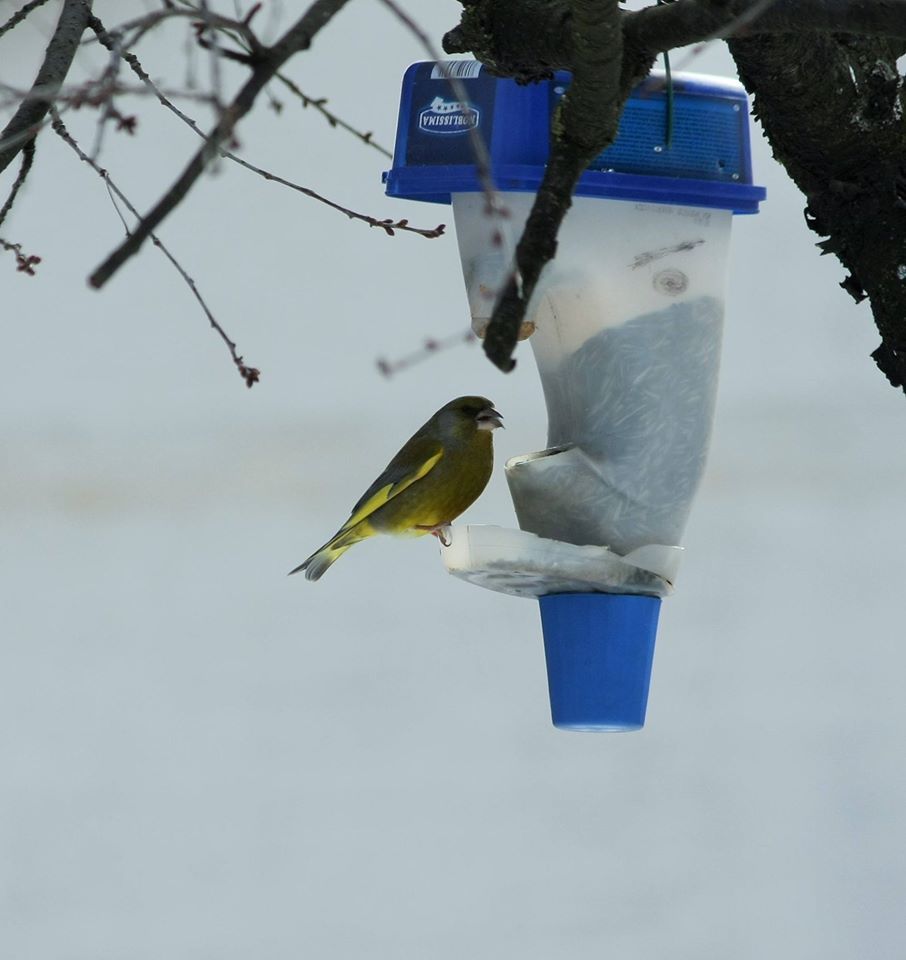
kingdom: Plantae
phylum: Tracheophyta
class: Liliopsida
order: Poales
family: Poaceae
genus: Chloris
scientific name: Chloris chloris
